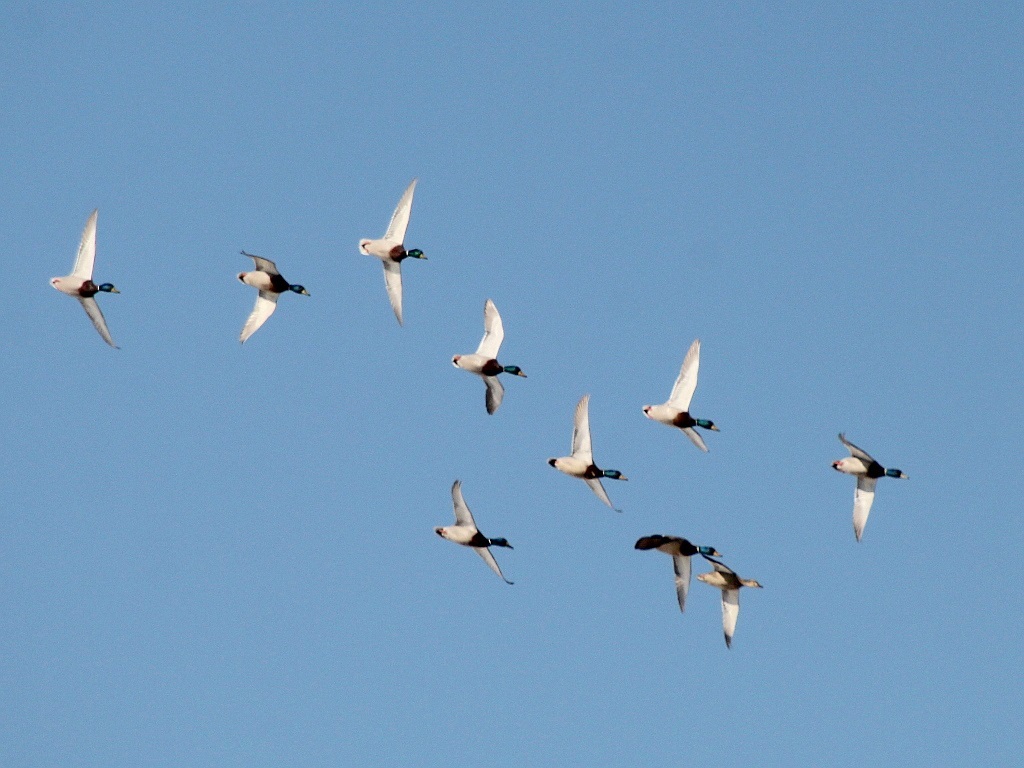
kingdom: Animalia
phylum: Chordata
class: Aves
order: Anseriformes
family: Anatidae
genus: Anas
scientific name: Anas platyrhynchos
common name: Mallard
